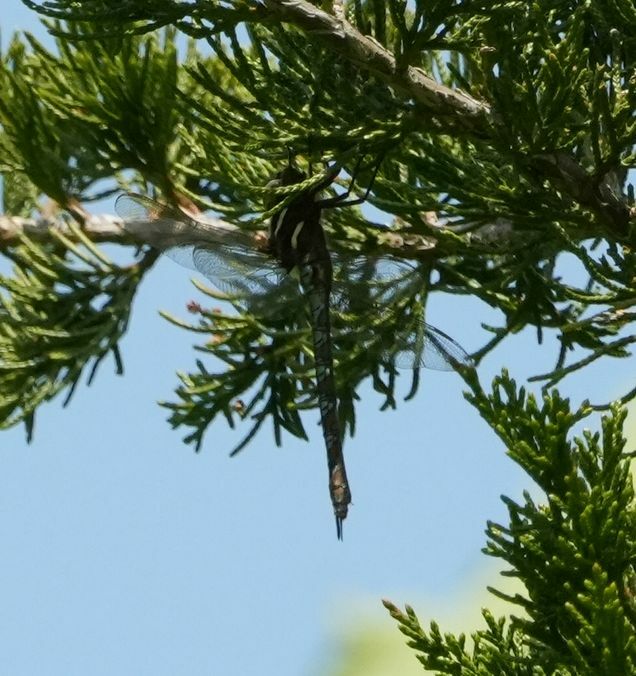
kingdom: Animalia
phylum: Arthropoda
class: Insecta
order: Odonata
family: Aeshnidae
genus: Basiaeschna
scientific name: Basiaeschna janata
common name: Springtime darner
